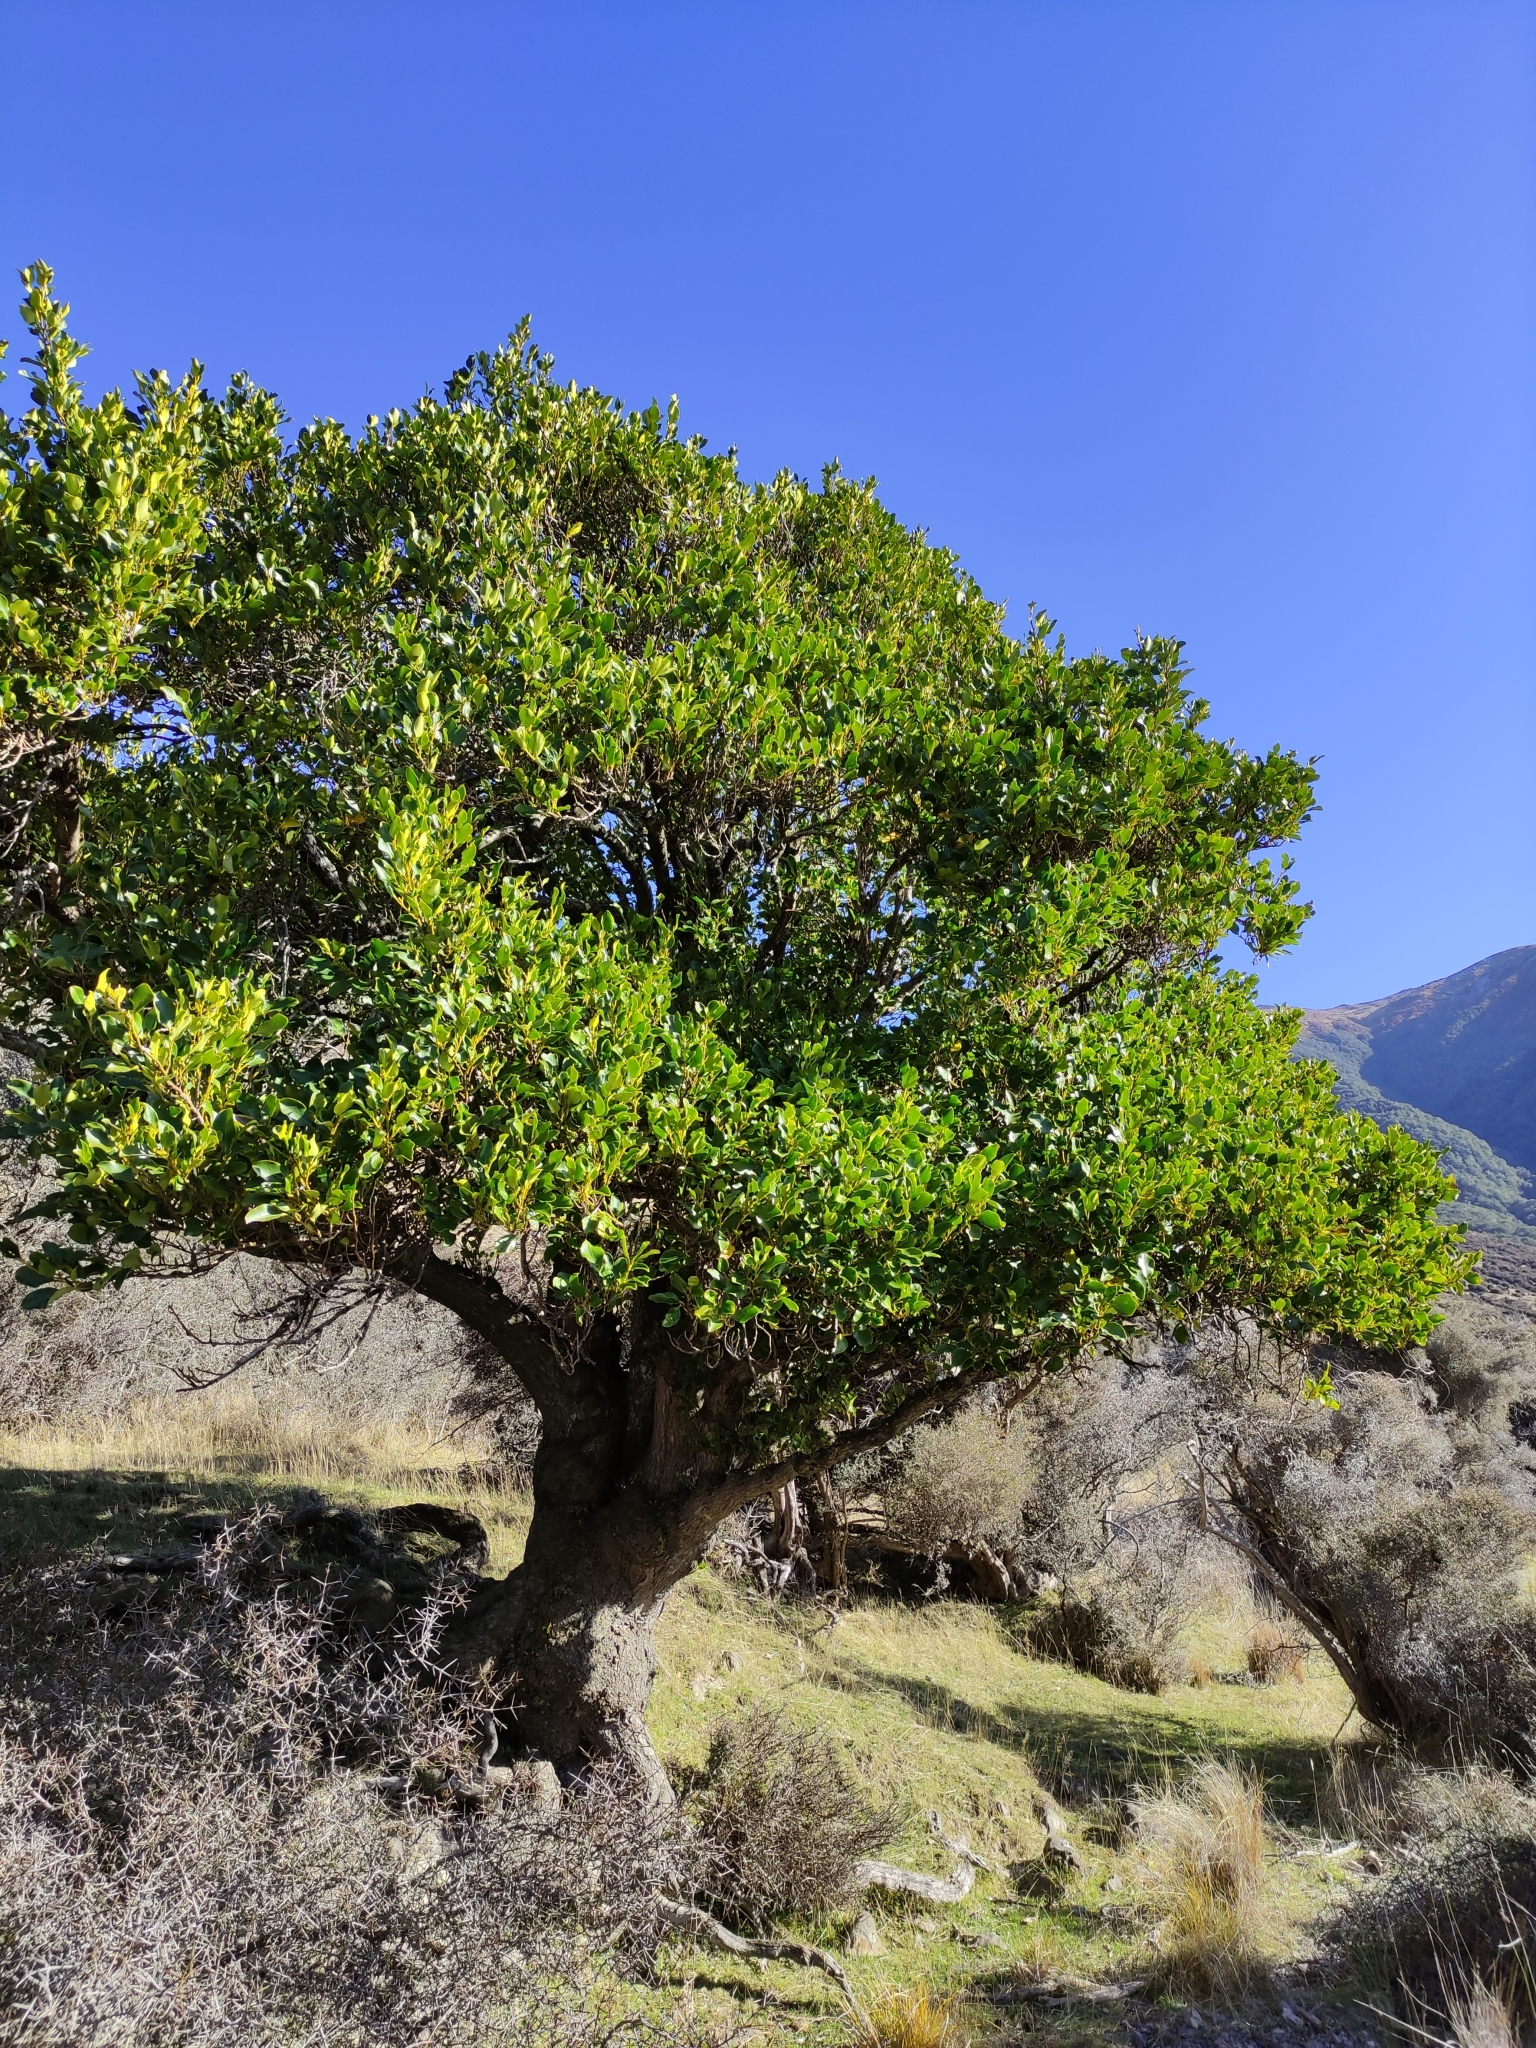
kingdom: Plantae
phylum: Tracheophyta
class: Magnoliopsida
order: Apiales
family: Griseliniaceae
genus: Griselinia
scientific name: Griselinia littoralis
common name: New zealand broadleaf
